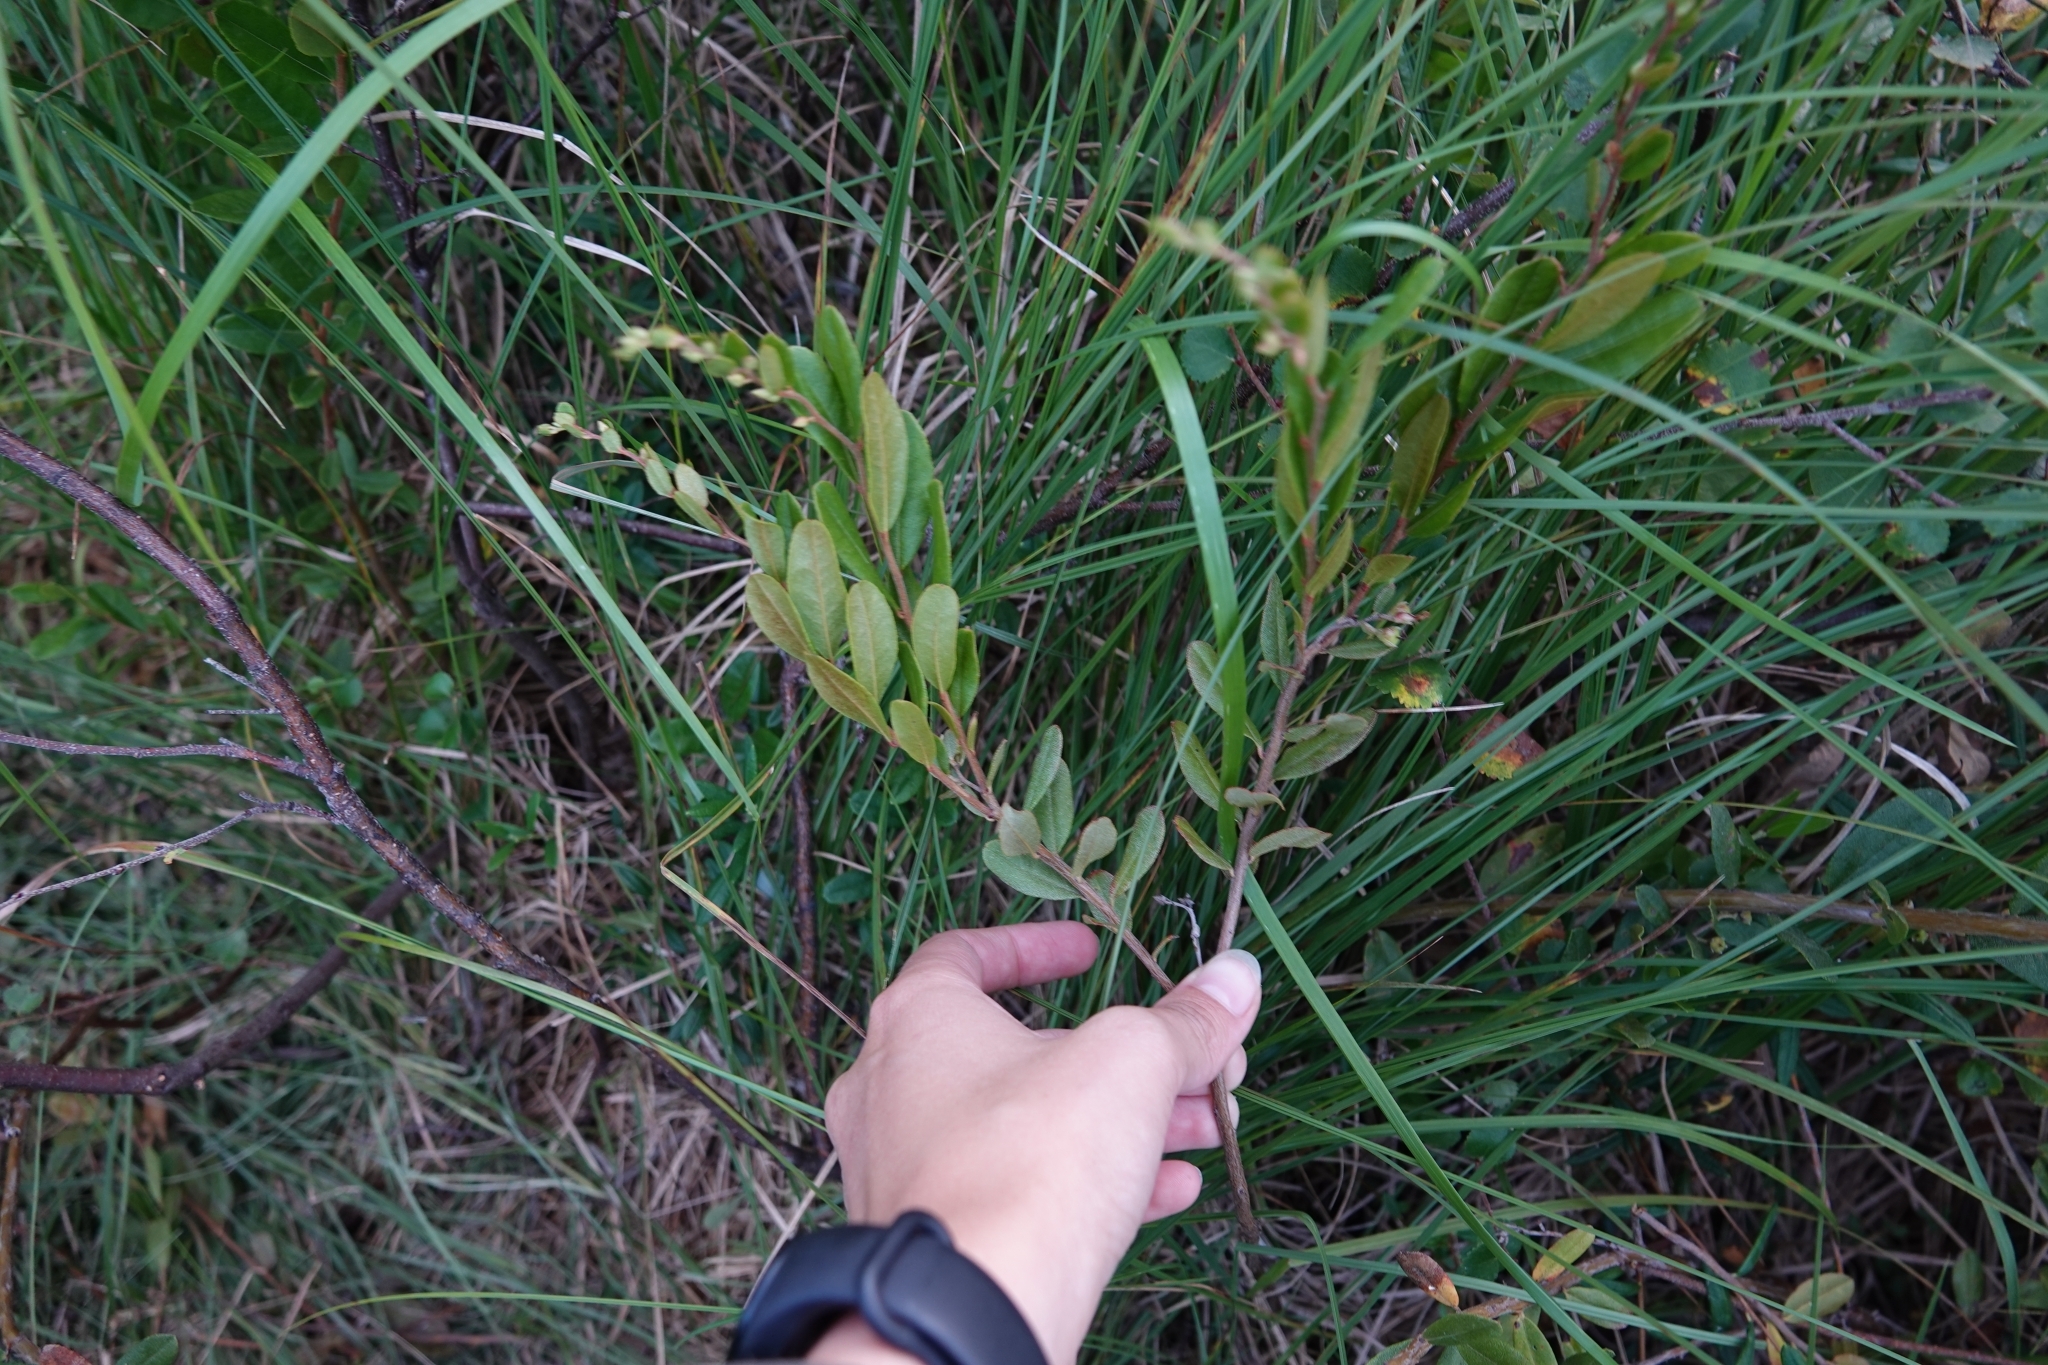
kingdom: Plantae
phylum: Tracheophyta
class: Magnoliopsida
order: Ericales
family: Ericaceae
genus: Chamaedaphne
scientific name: Chamaedaphne calyculata
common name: Leatherleaf
